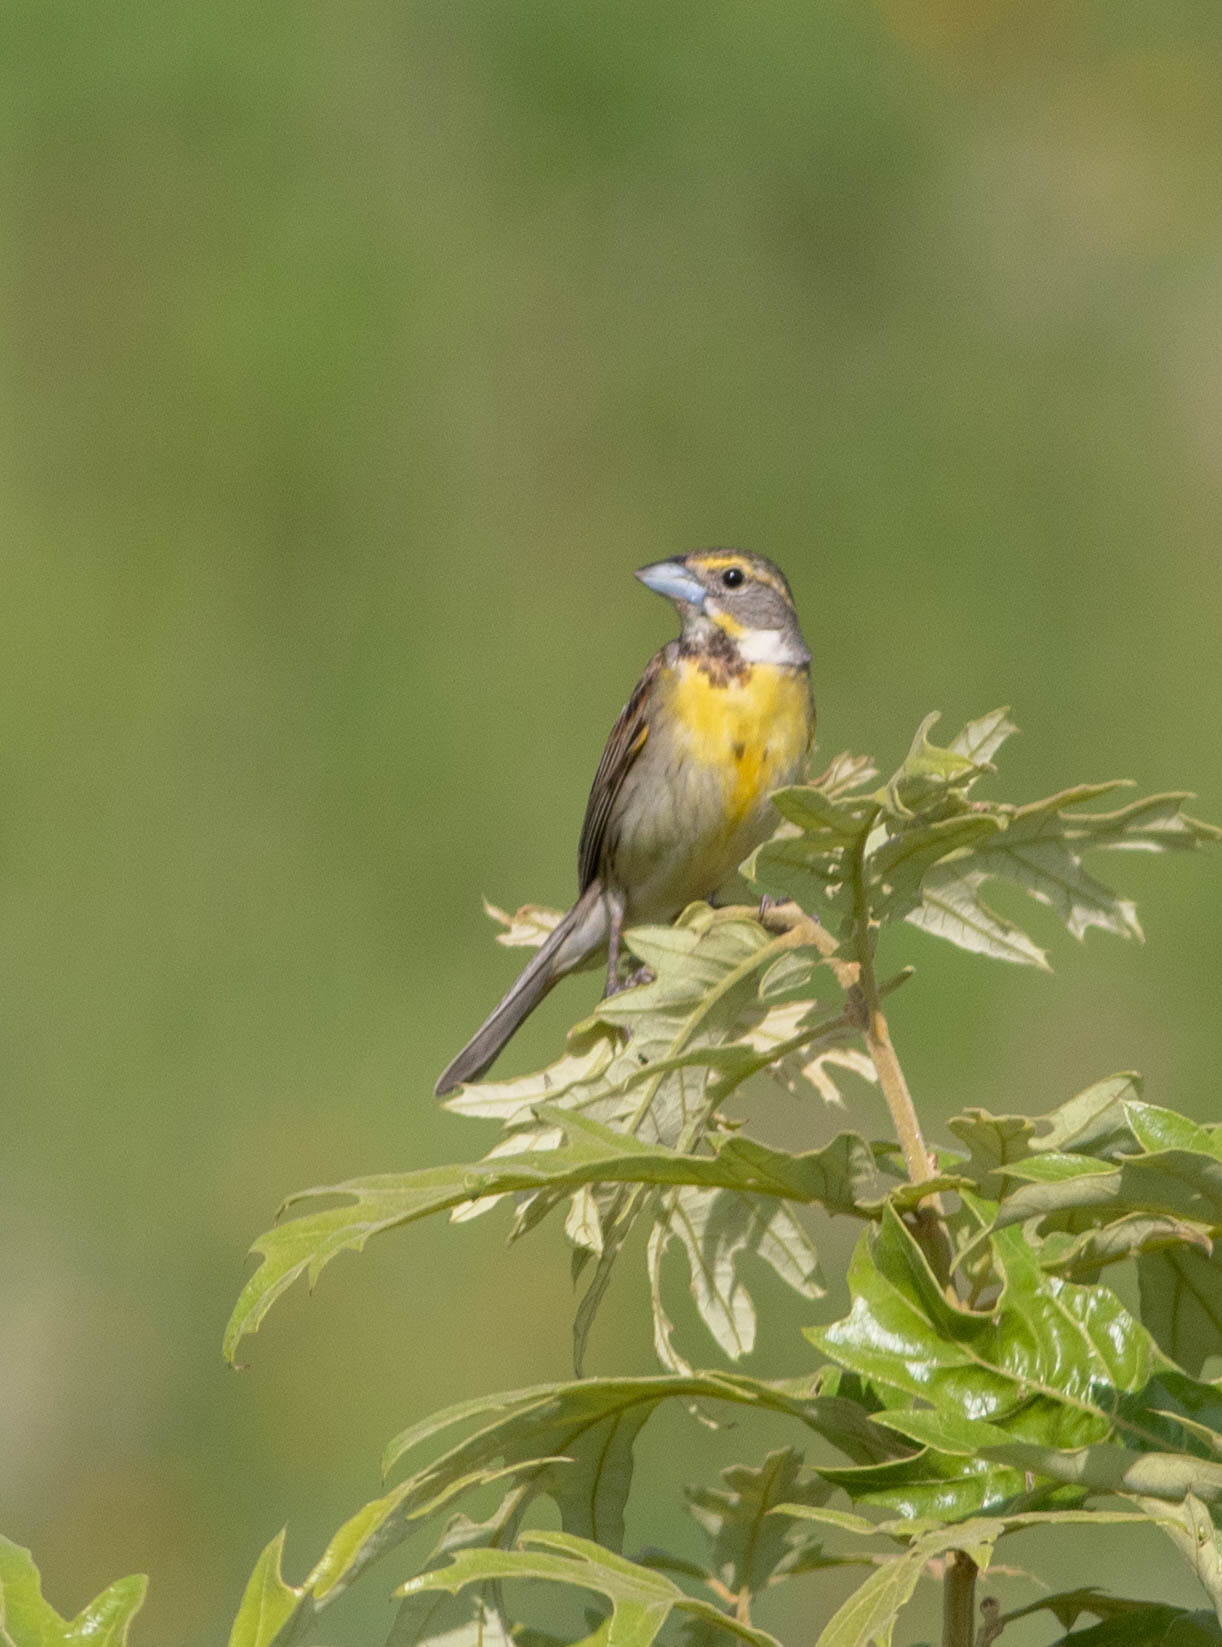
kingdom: Animalia
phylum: Chordata
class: Aves
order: Passeriformes
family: Cardinalidae
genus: Spiza
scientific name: Spiza americana
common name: Dickcissel
